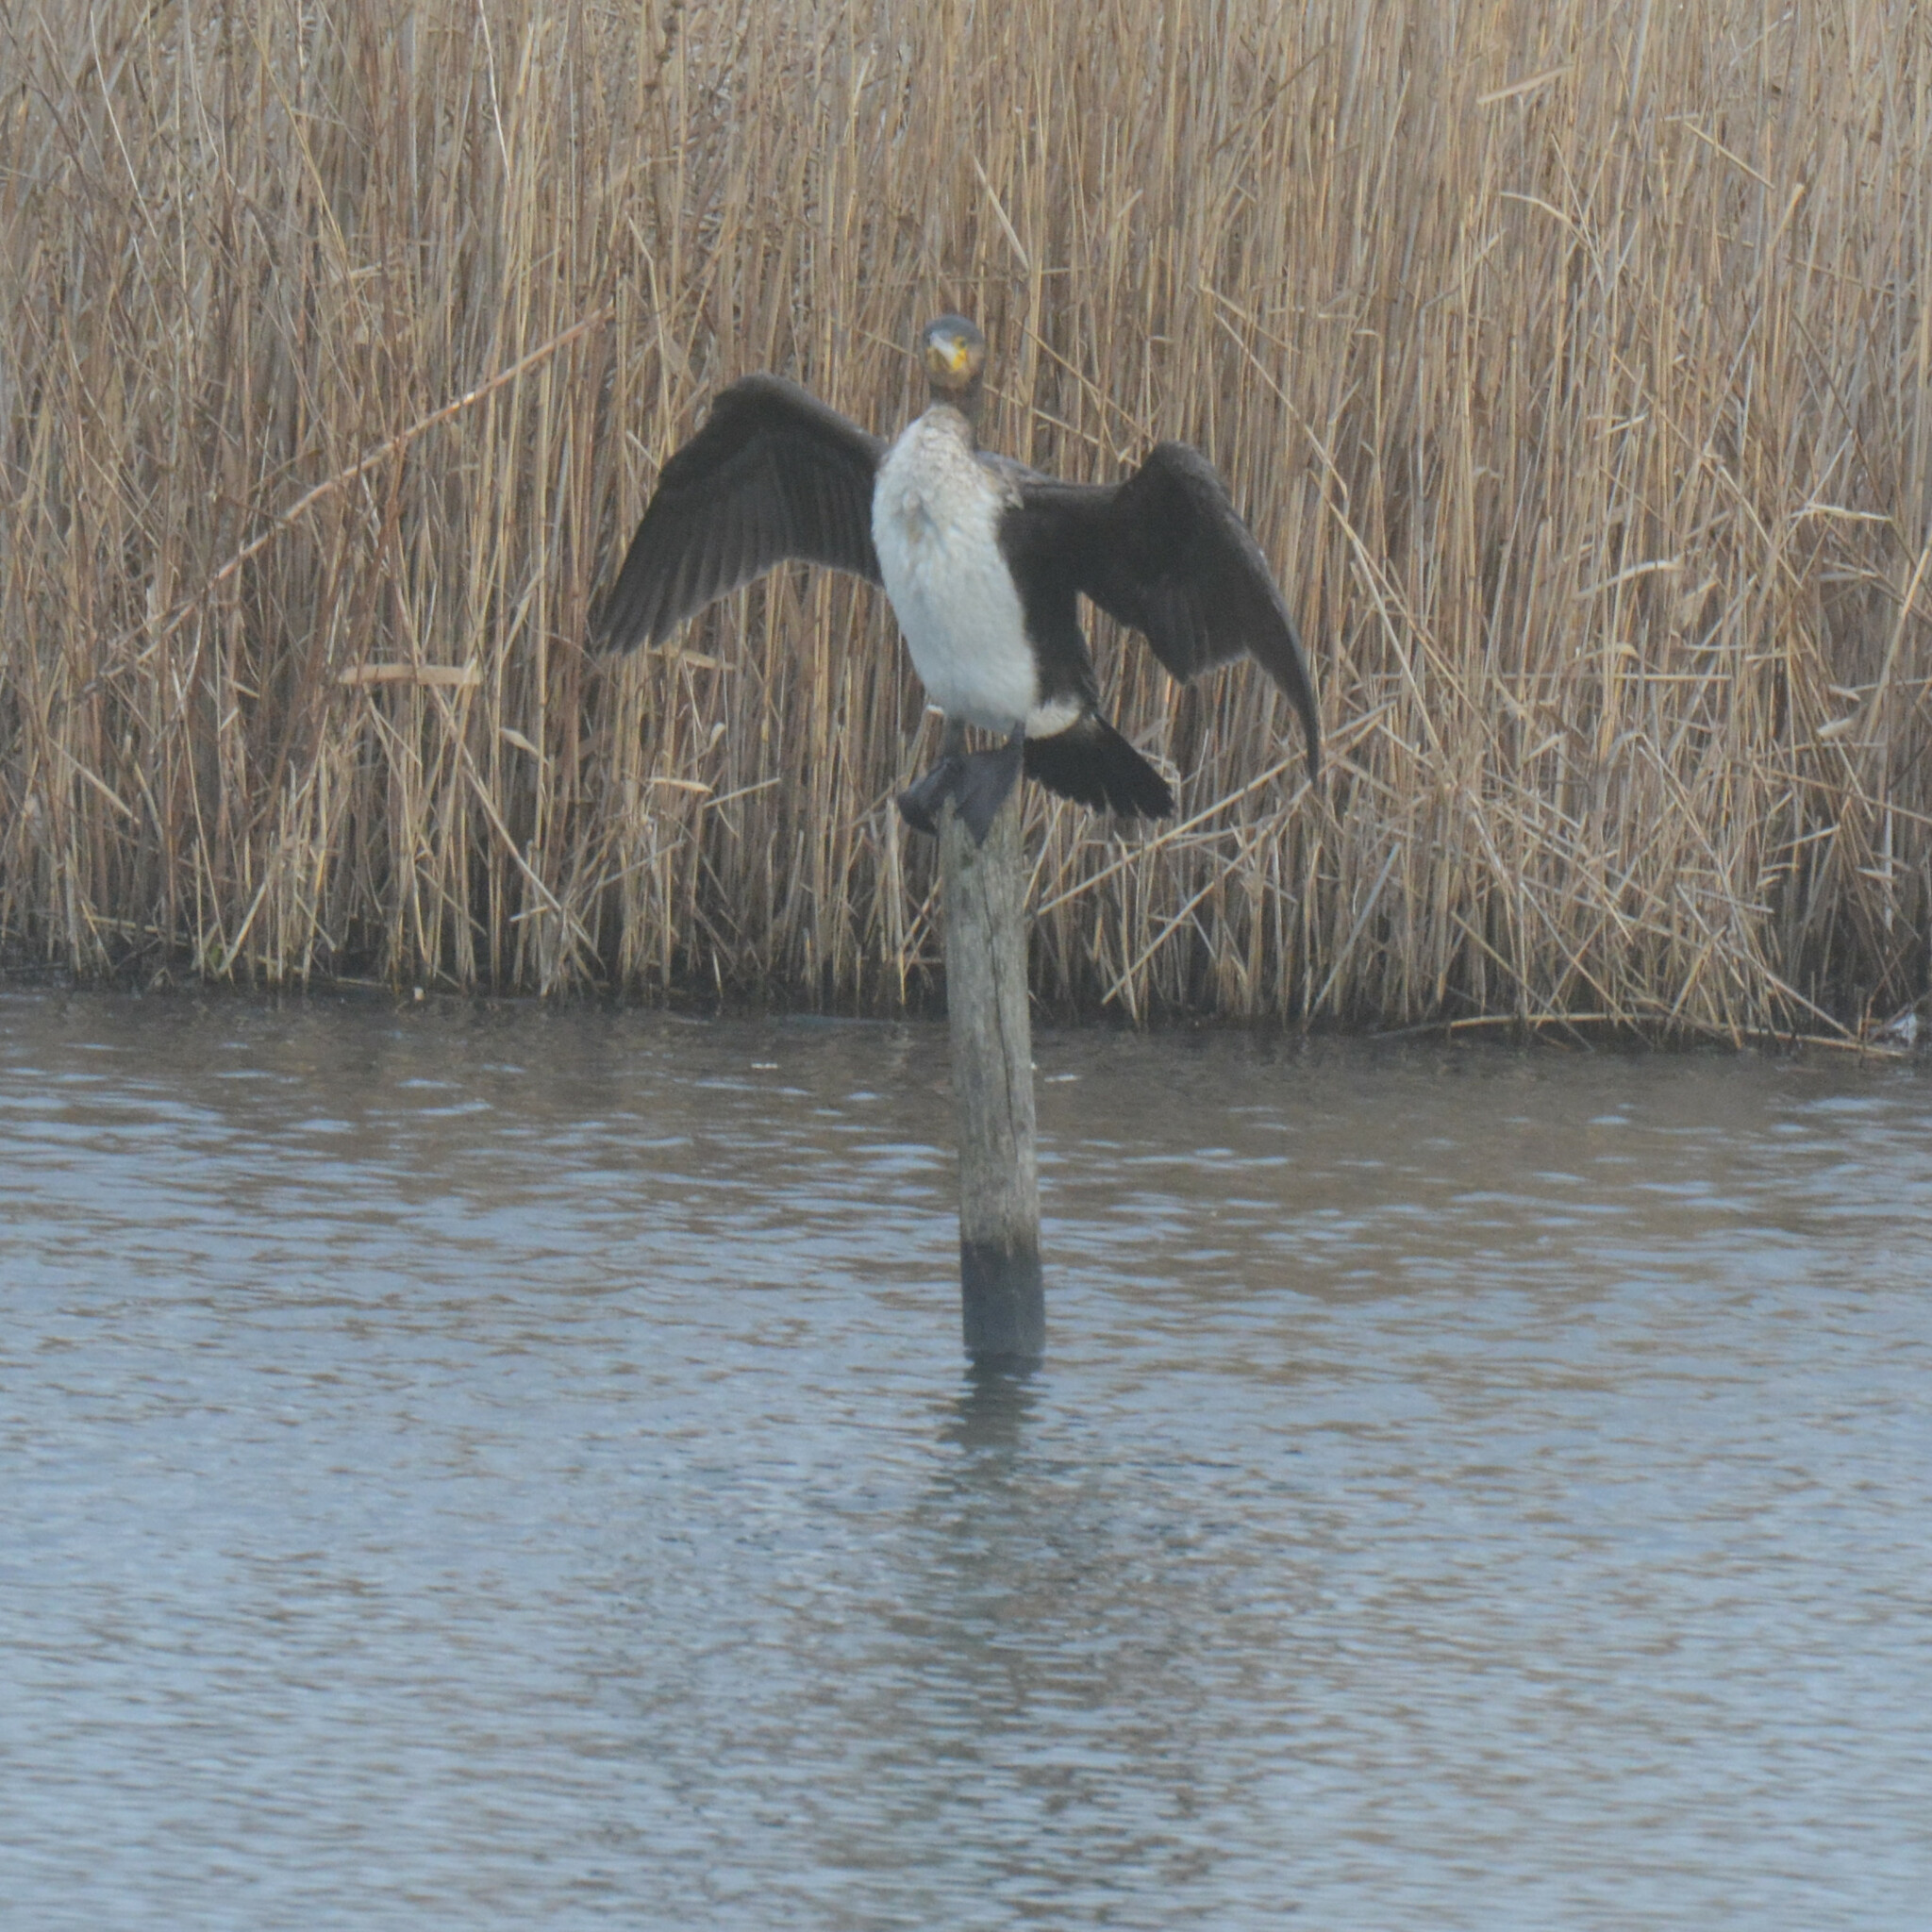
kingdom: Animalia
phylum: Chordata
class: Aves
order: Suliformes
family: Phalacrocoracidae
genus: Phalacrocorax
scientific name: Phalacrocorax carbo
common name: Great cormorant
